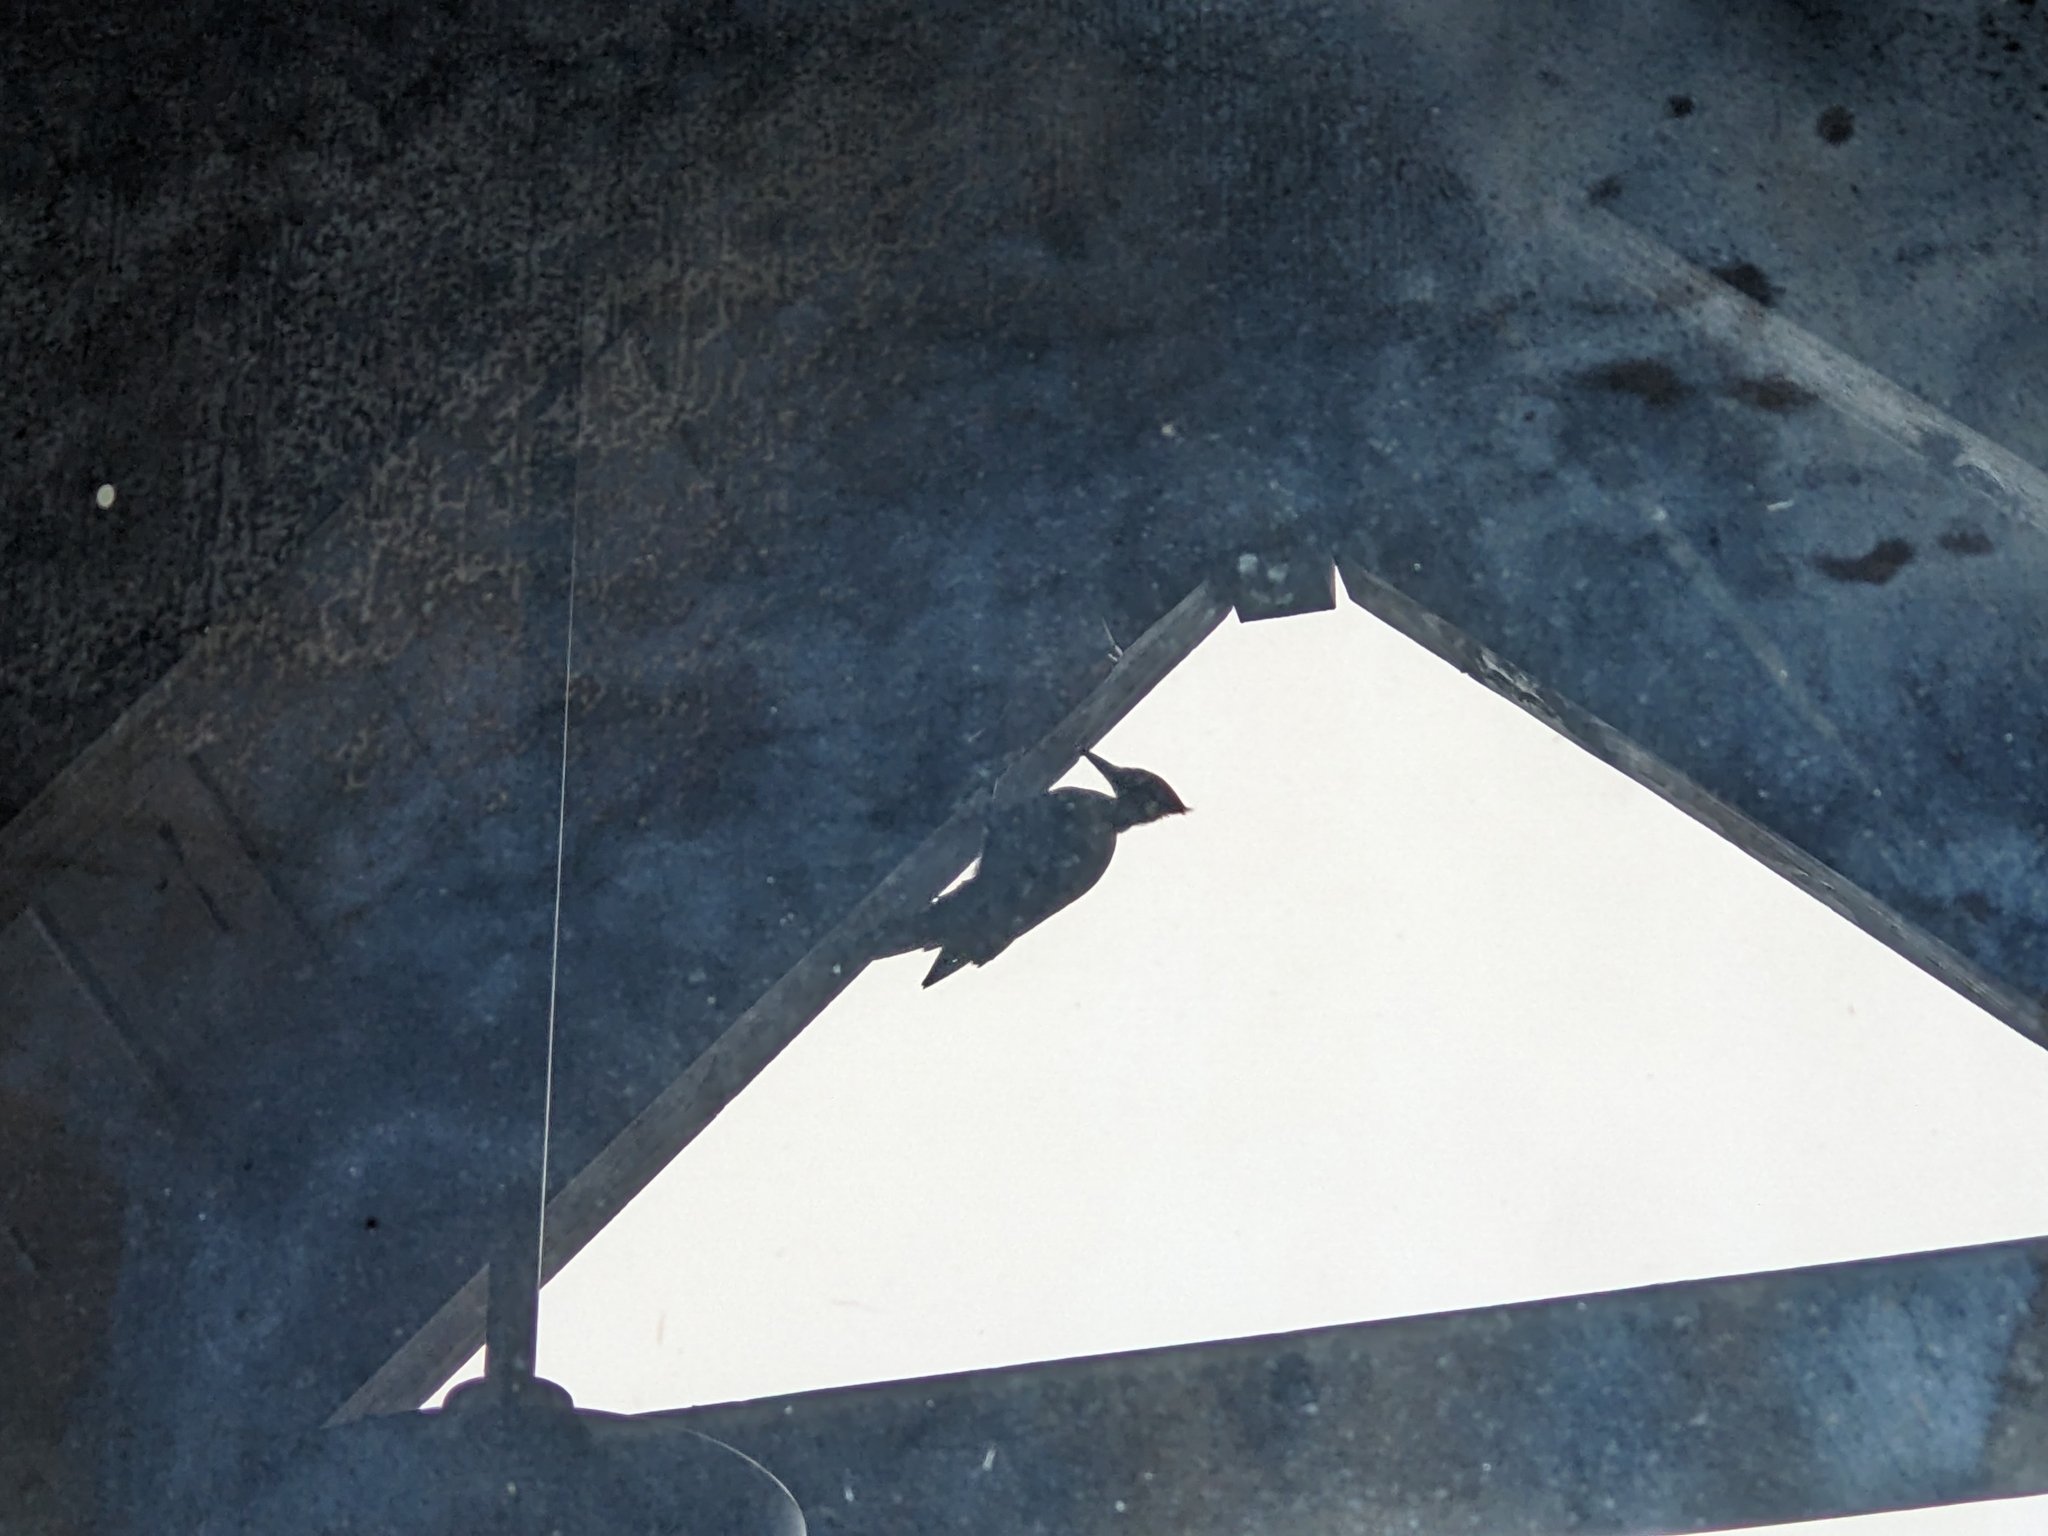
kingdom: Animalia
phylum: Chordata
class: Aves
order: Piciformes
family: Picidae
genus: Dryocopus
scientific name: Dryocopus pileatus
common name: Pileated woodpecker
